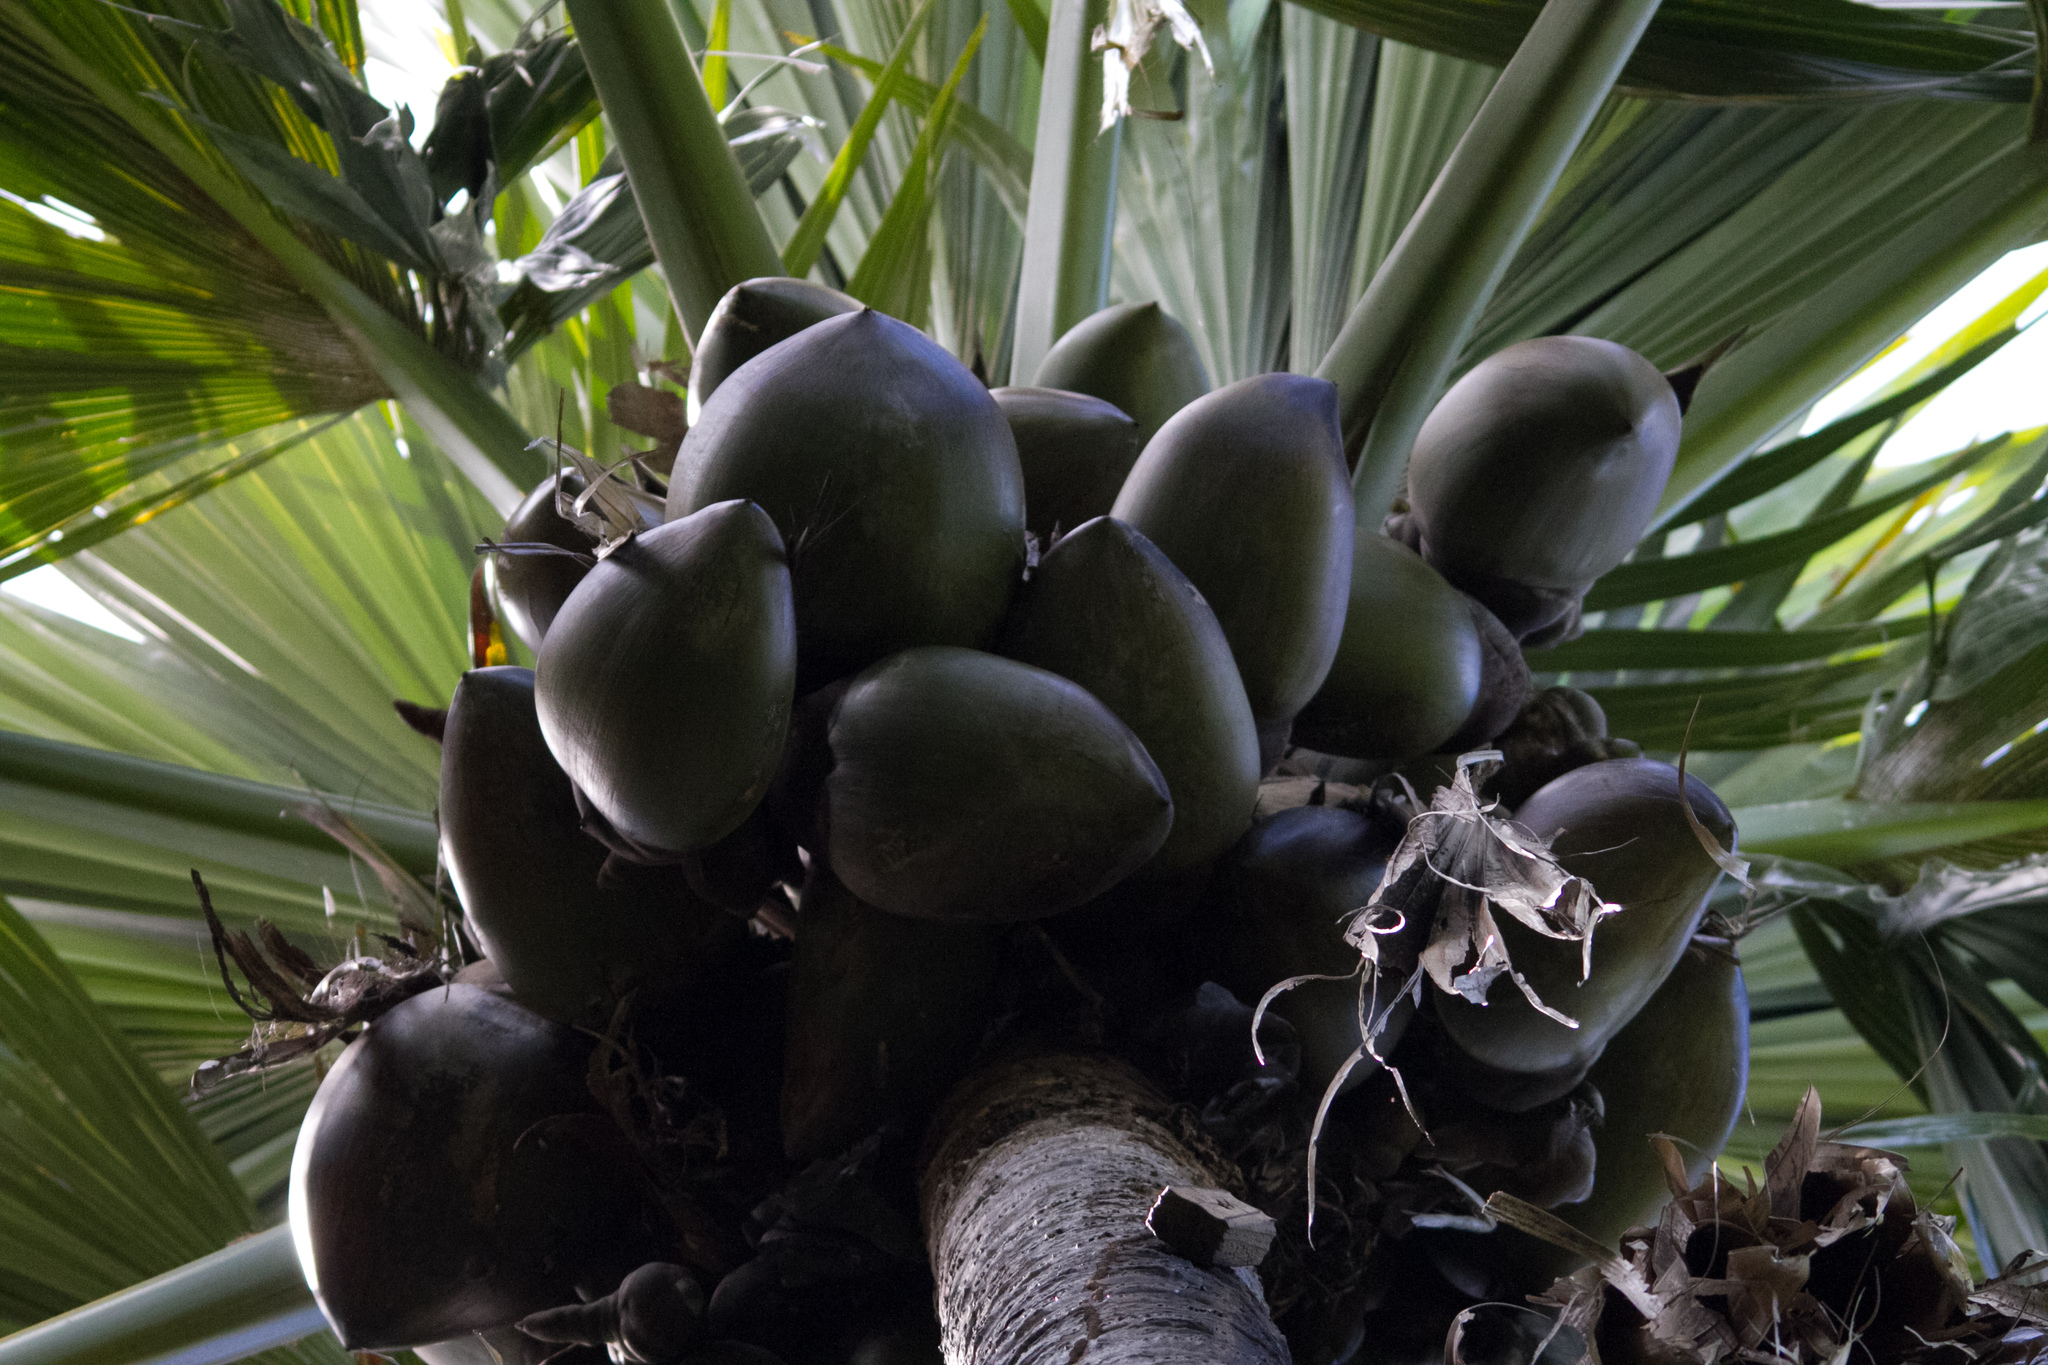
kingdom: Plantae
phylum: Tracheophyta
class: Liliopsida
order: Arecales
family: Arecaceae
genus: Lodoicea
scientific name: Lodoicea maldivica
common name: Double coconut palm
